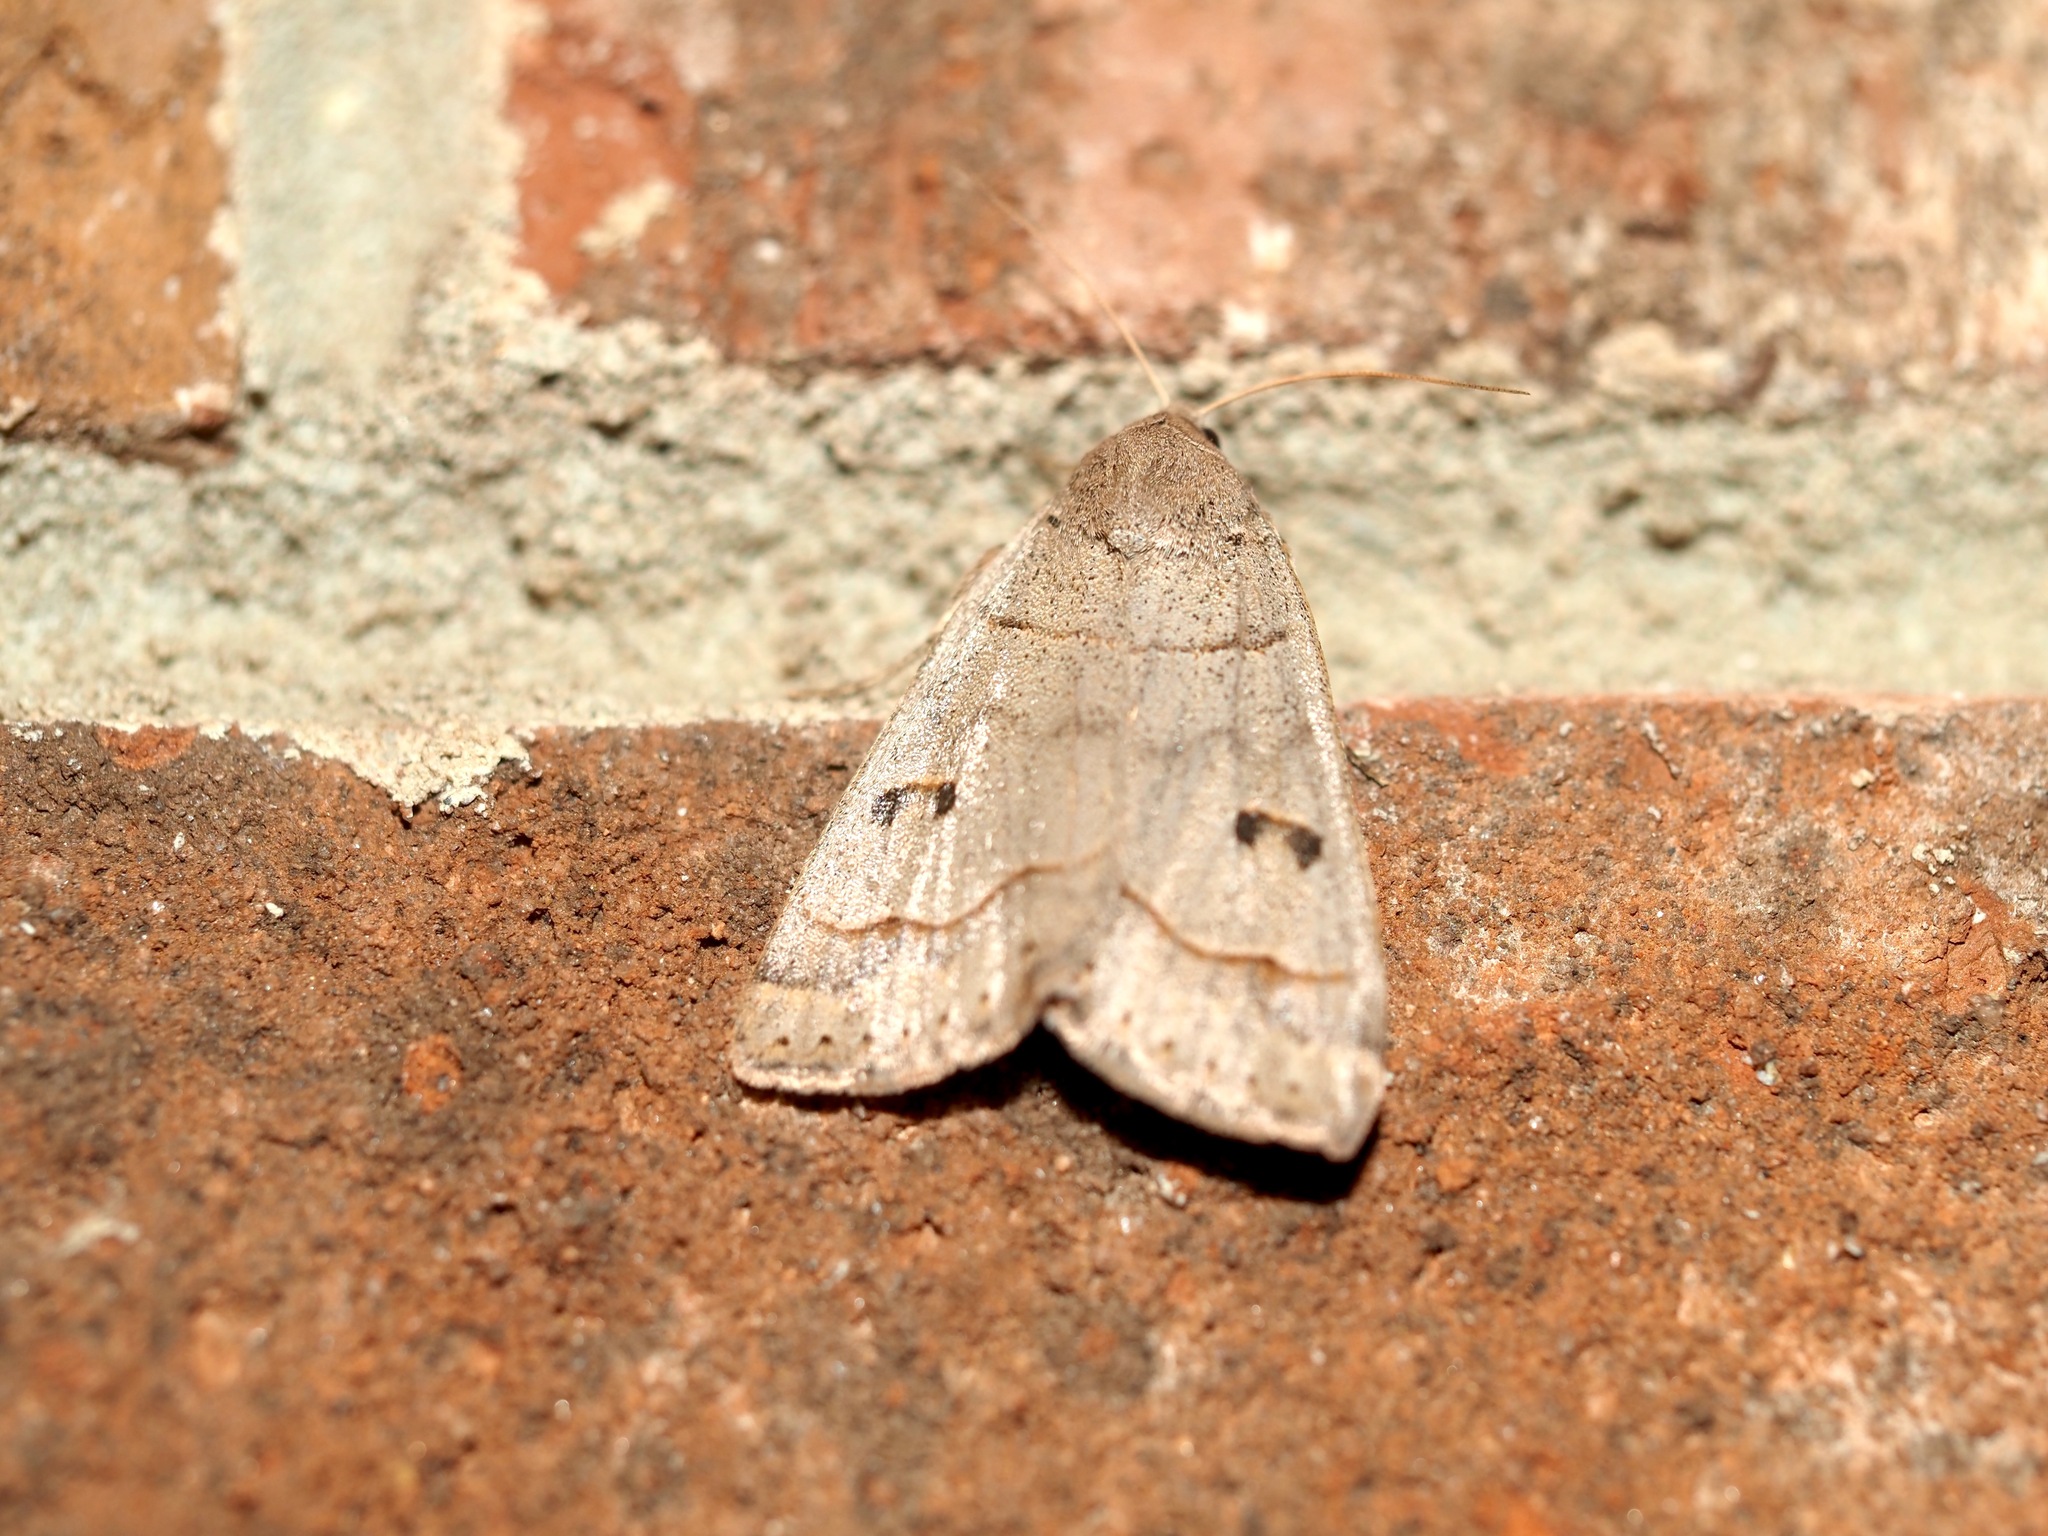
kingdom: Animalia
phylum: Arthropoda
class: Insecta
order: Lepidoptera
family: Erebidae
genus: Phoberia
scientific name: Phoberia atomaris
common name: Common oak moth
